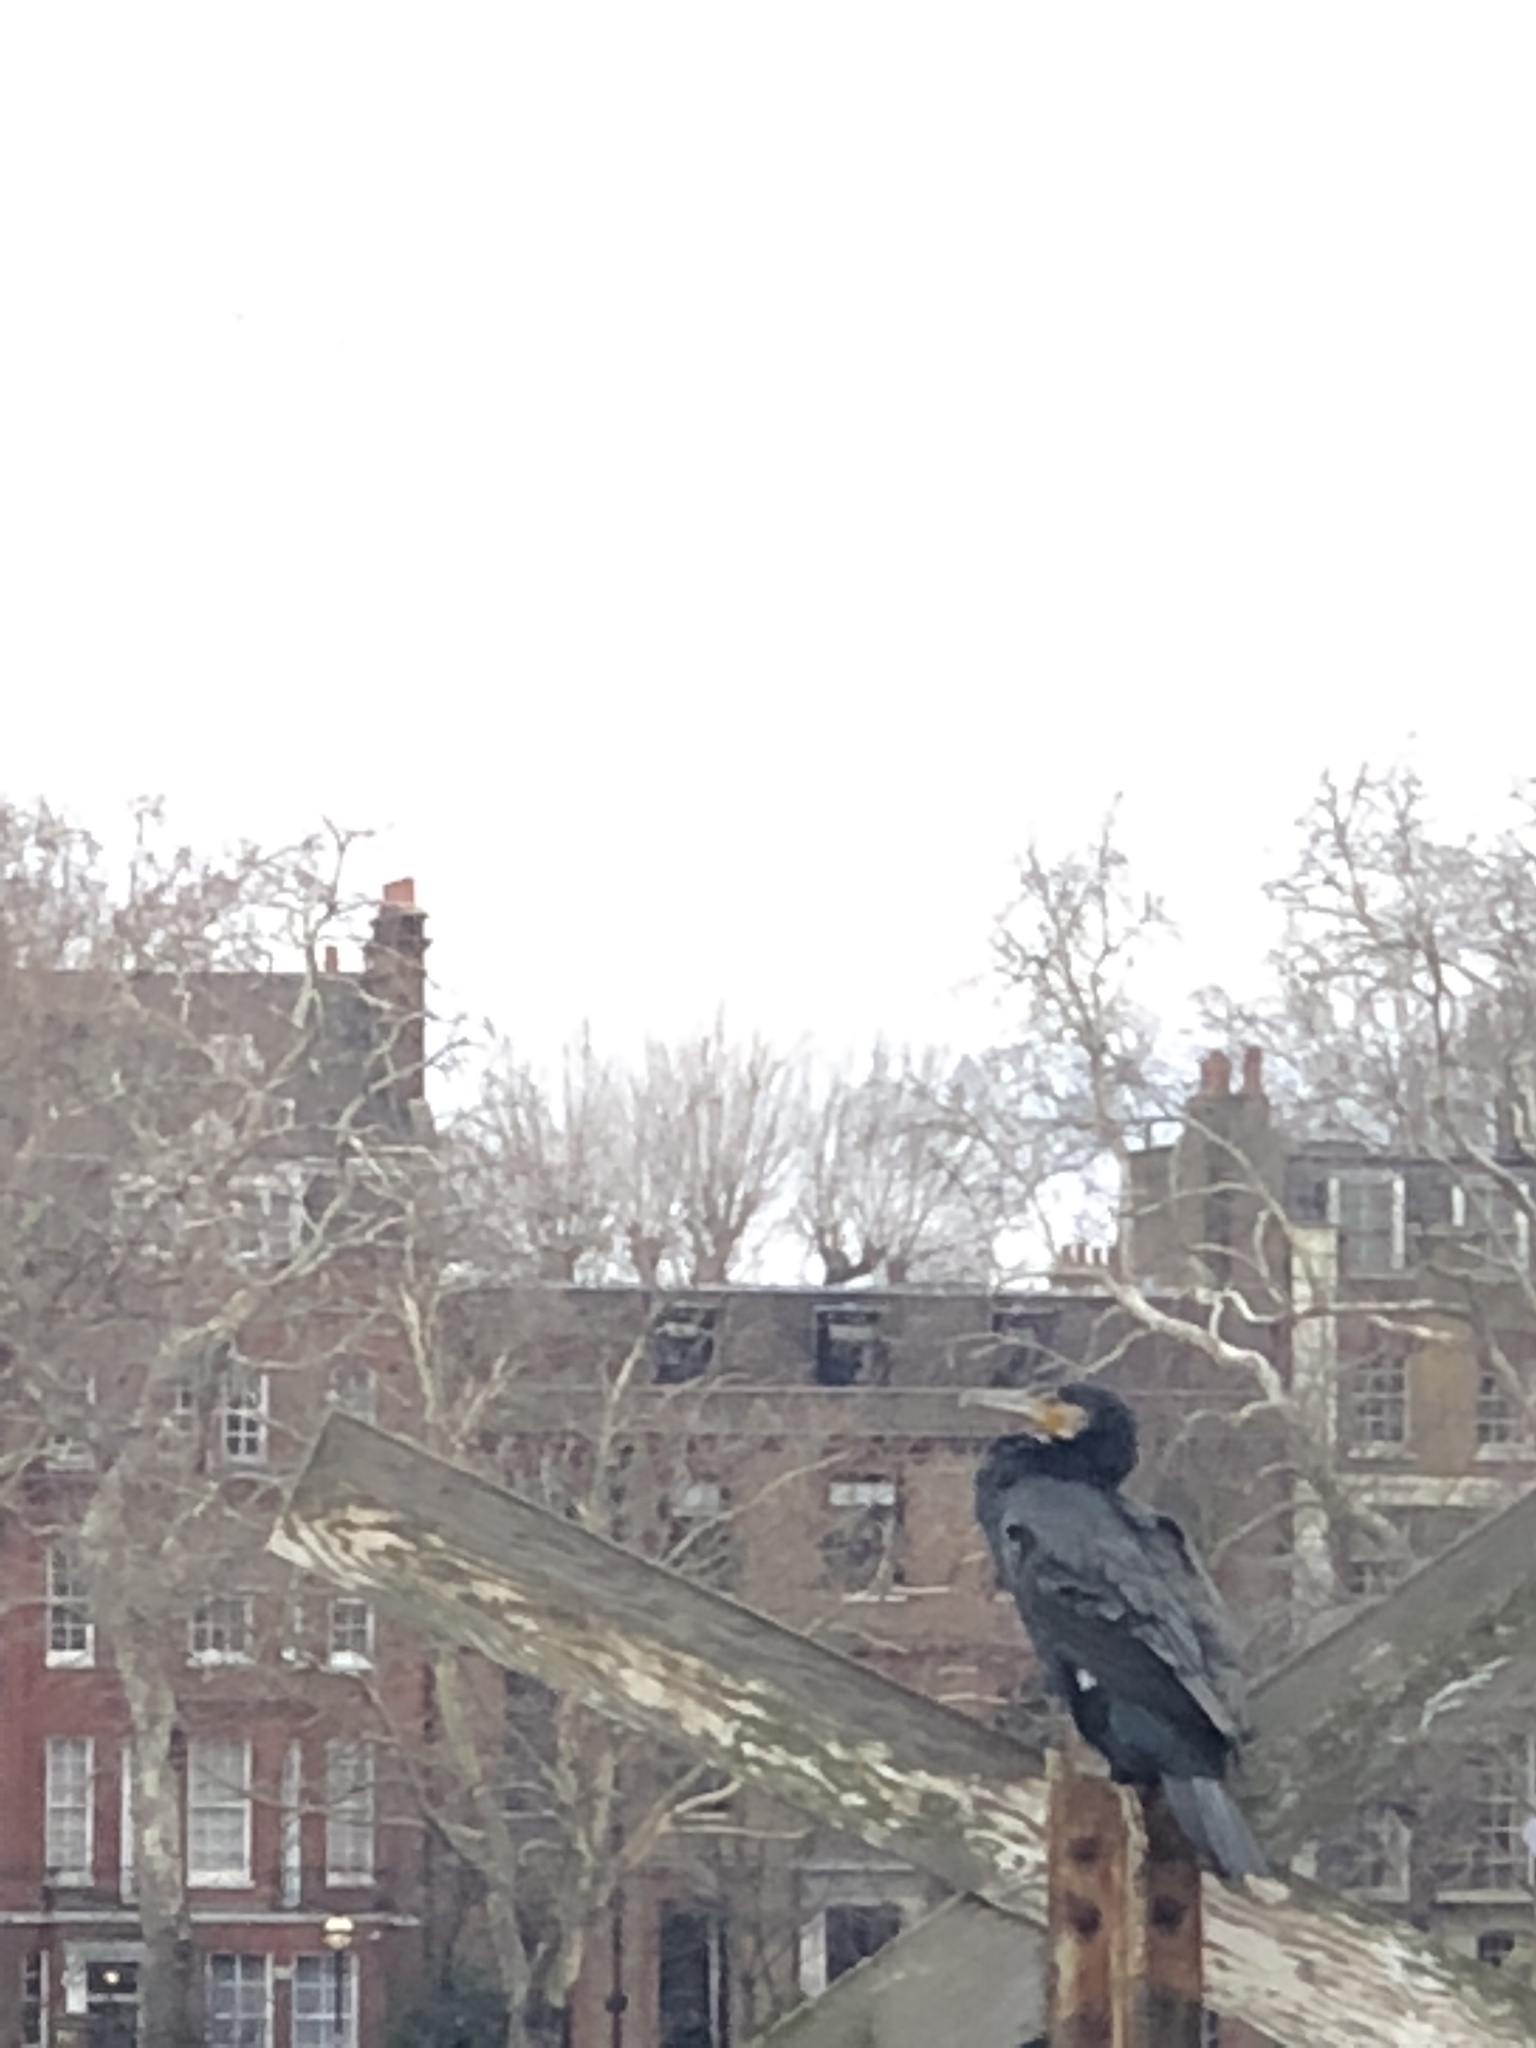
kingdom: Animalia
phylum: Chordata
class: Aves
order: Suliformes
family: Phalacrocoracidae
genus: Phalacrocorax
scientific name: Phalacrocorax carbo
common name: Great cormorant
